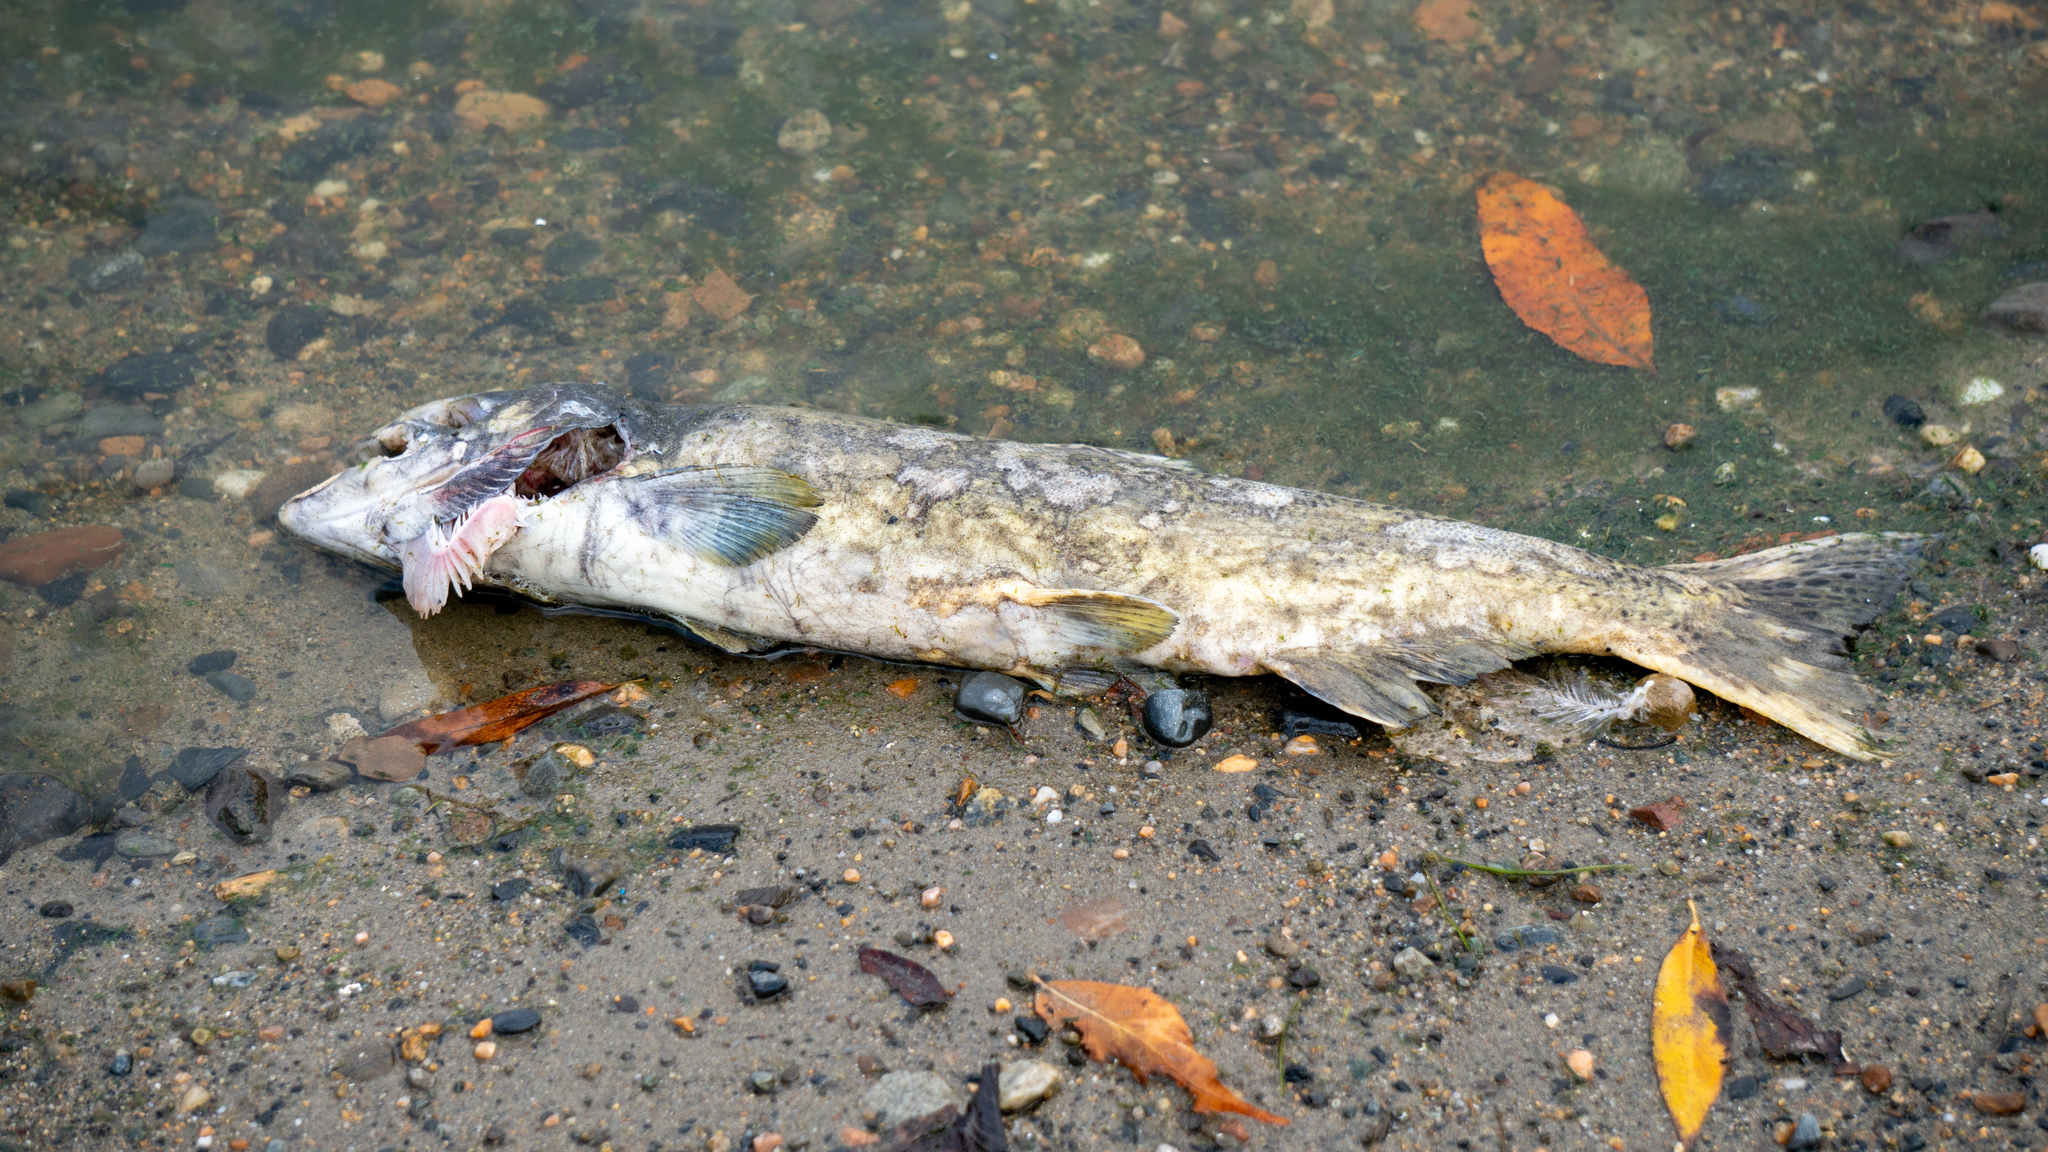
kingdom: Animalia
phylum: Chordata
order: Salmoniformes
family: Salmonidae
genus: Oncorhynchus
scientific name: Oncorhynchus tshawytscha
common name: Chinook salmon
